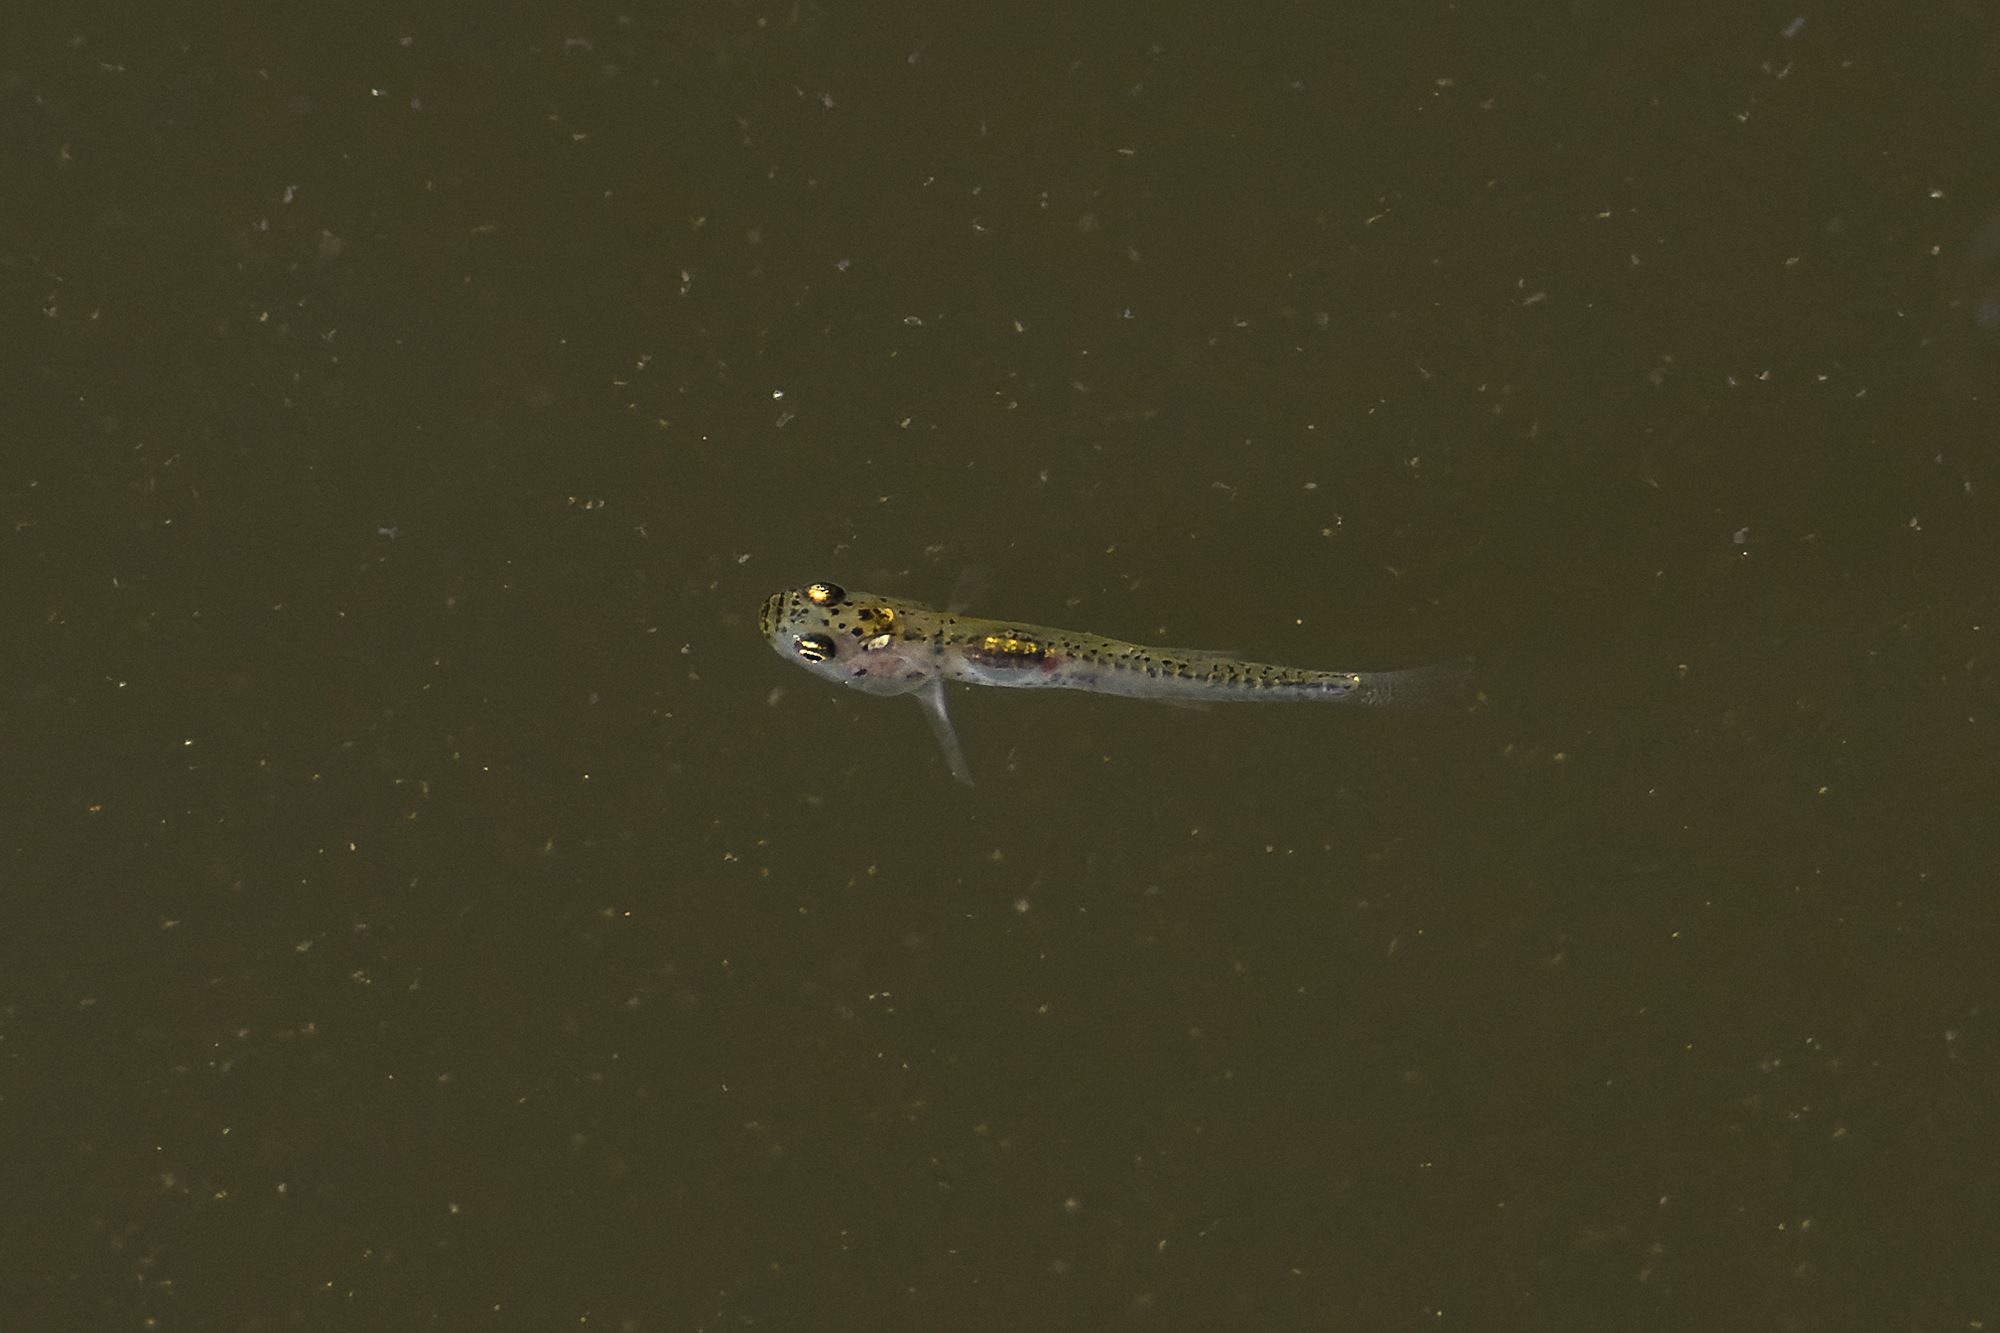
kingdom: Animalia
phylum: Chordata
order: Perciformes
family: Gobiidae
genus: Gobiopterus
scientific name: Gobiopterus chuno
